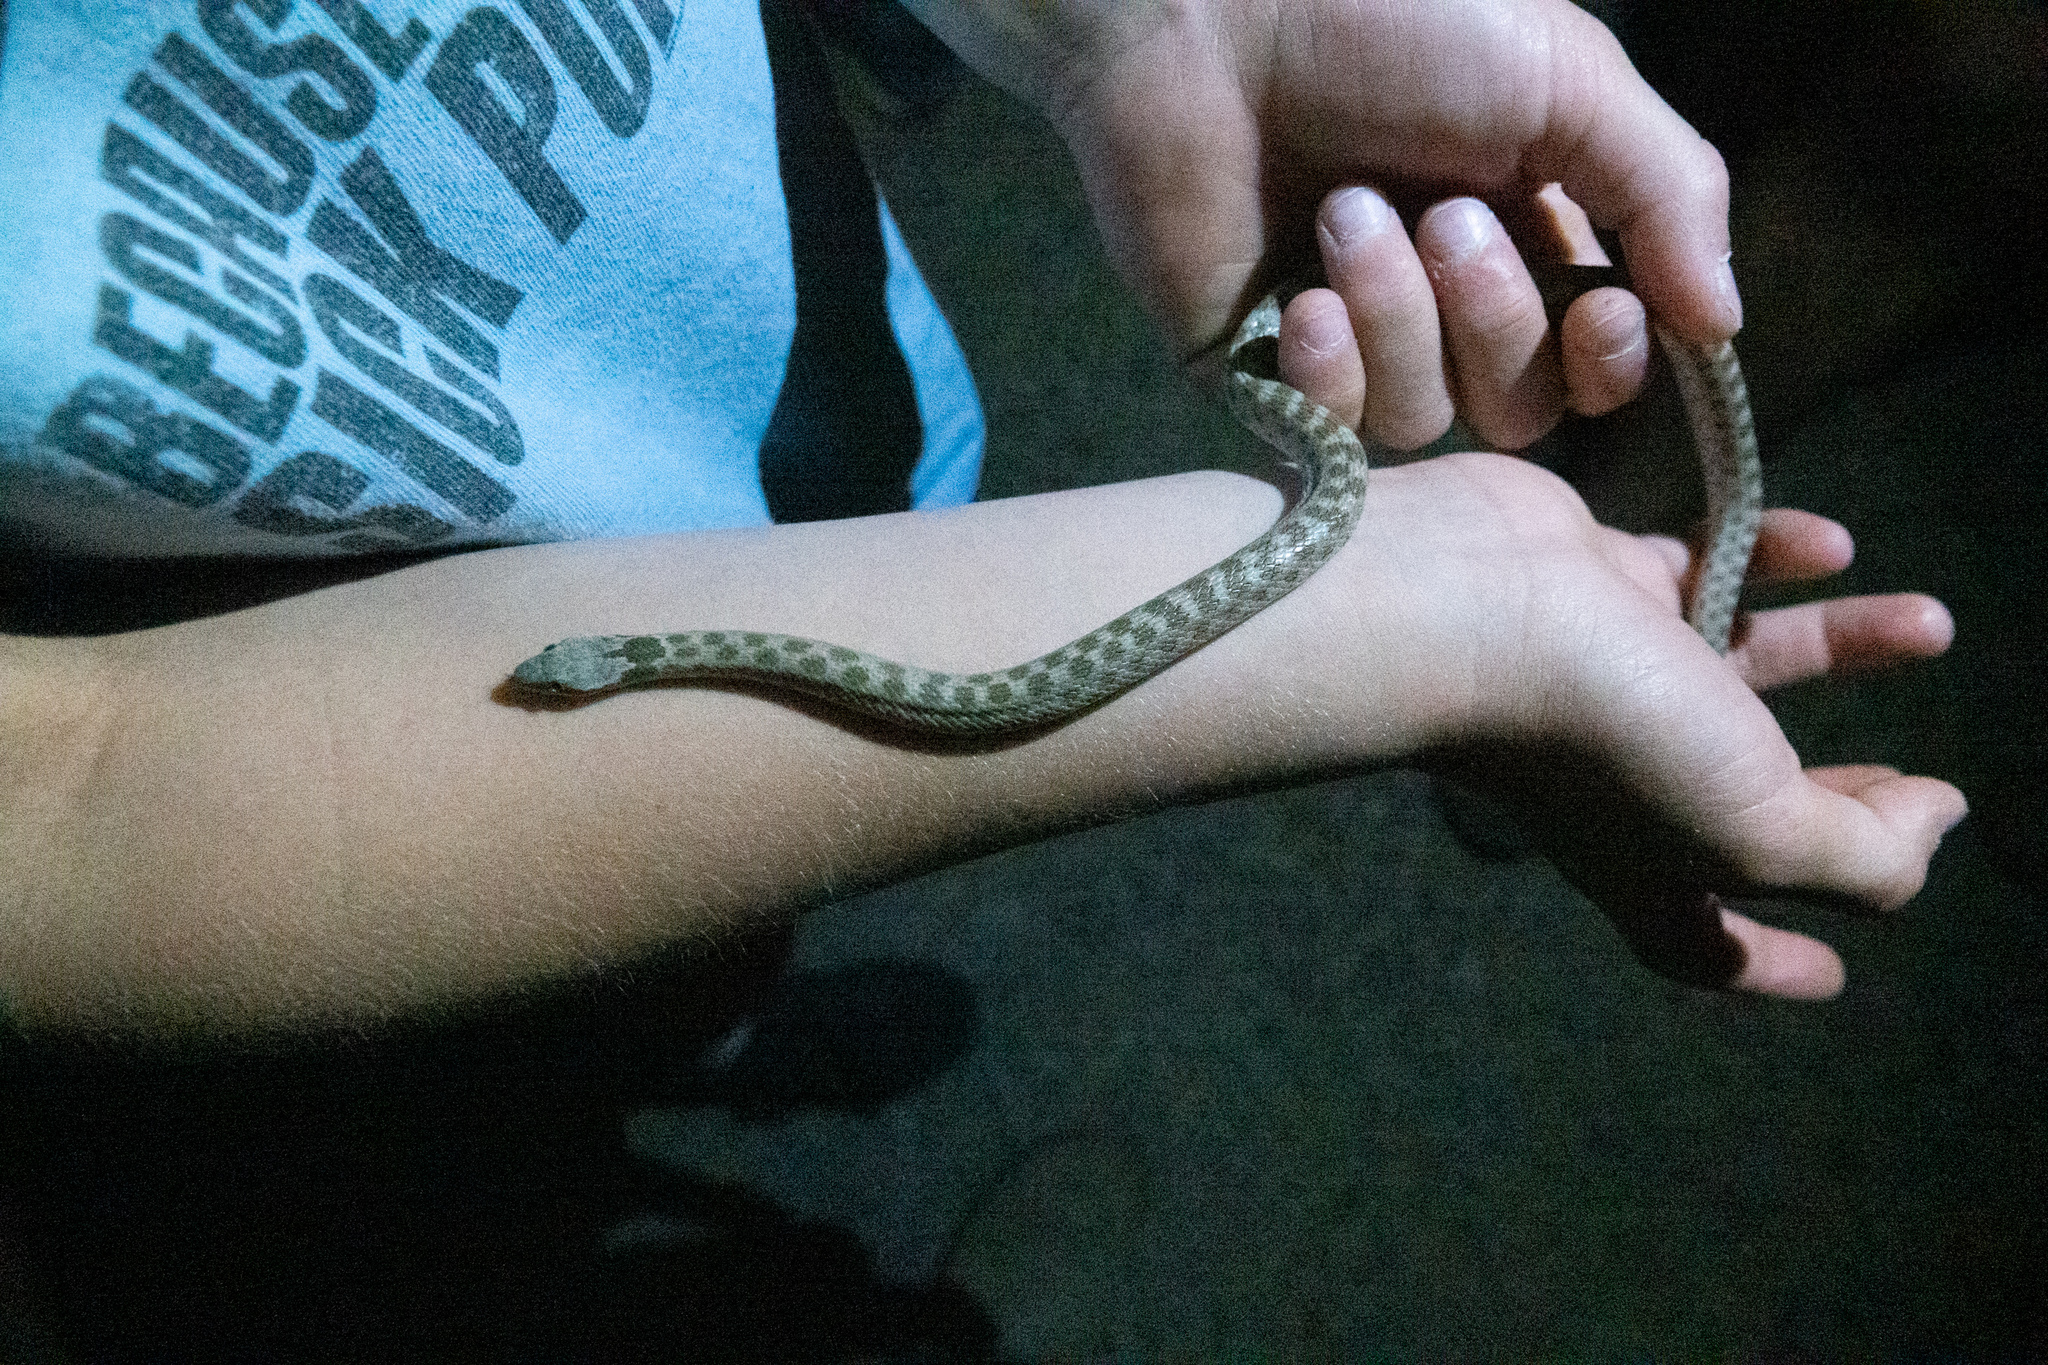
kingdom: Animalia
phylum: Chordata
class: Squamata
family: Colubridae
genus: Hypsiglena
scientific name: Hypsiglena chlorophaea
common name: Desert nightsnake
